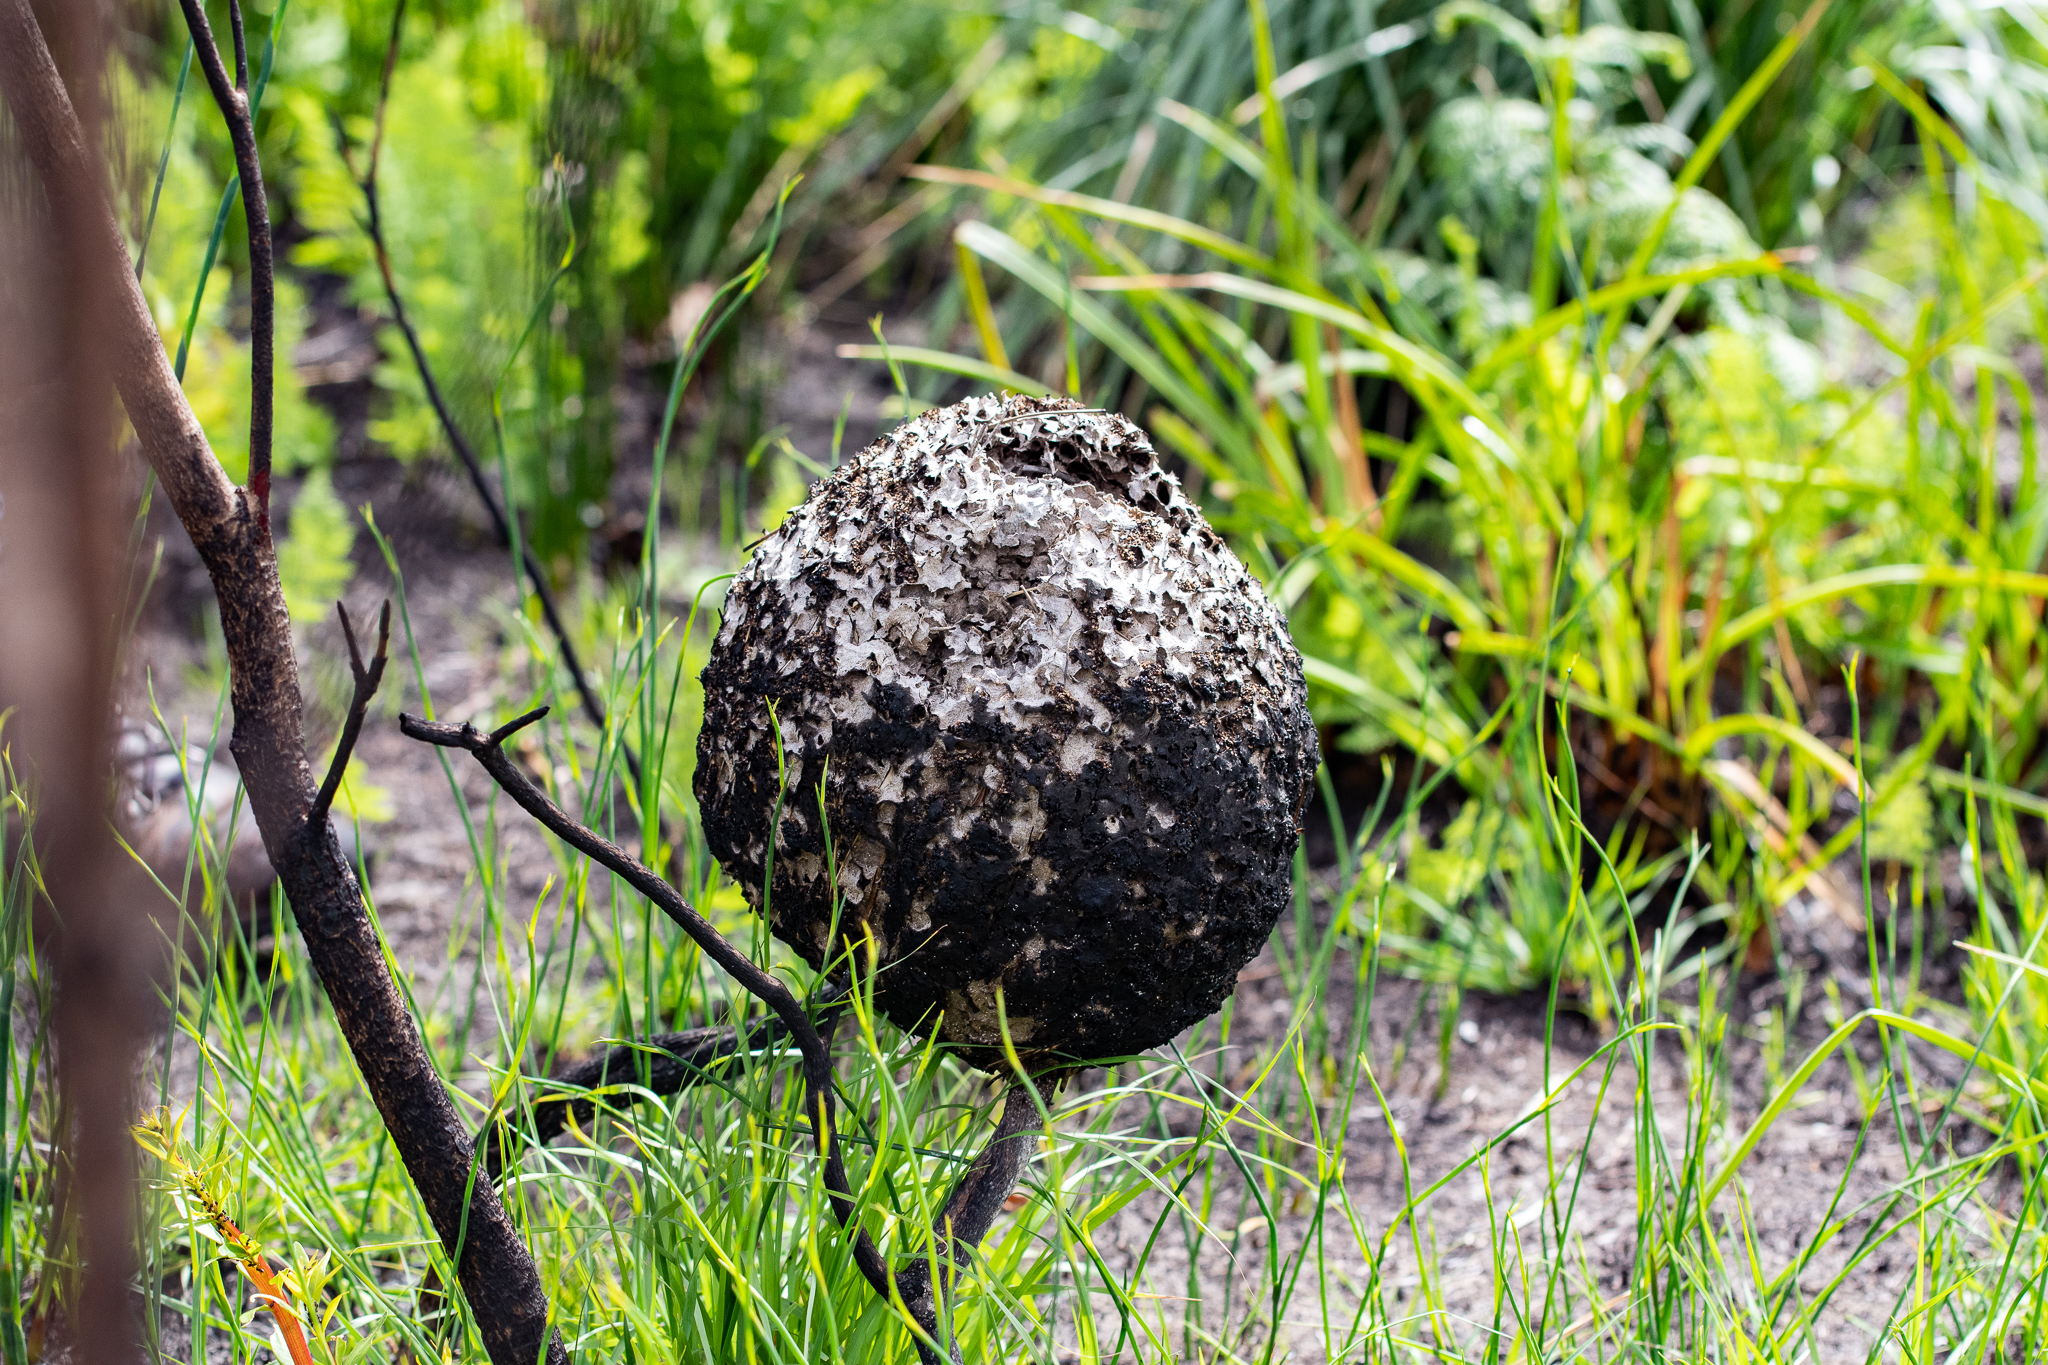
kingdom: Animalia
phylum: Arthropoda
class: Insecta
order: Hymenoptera
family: Formicidae
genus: Crematogaster
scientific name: Crematogaster peringueyi
